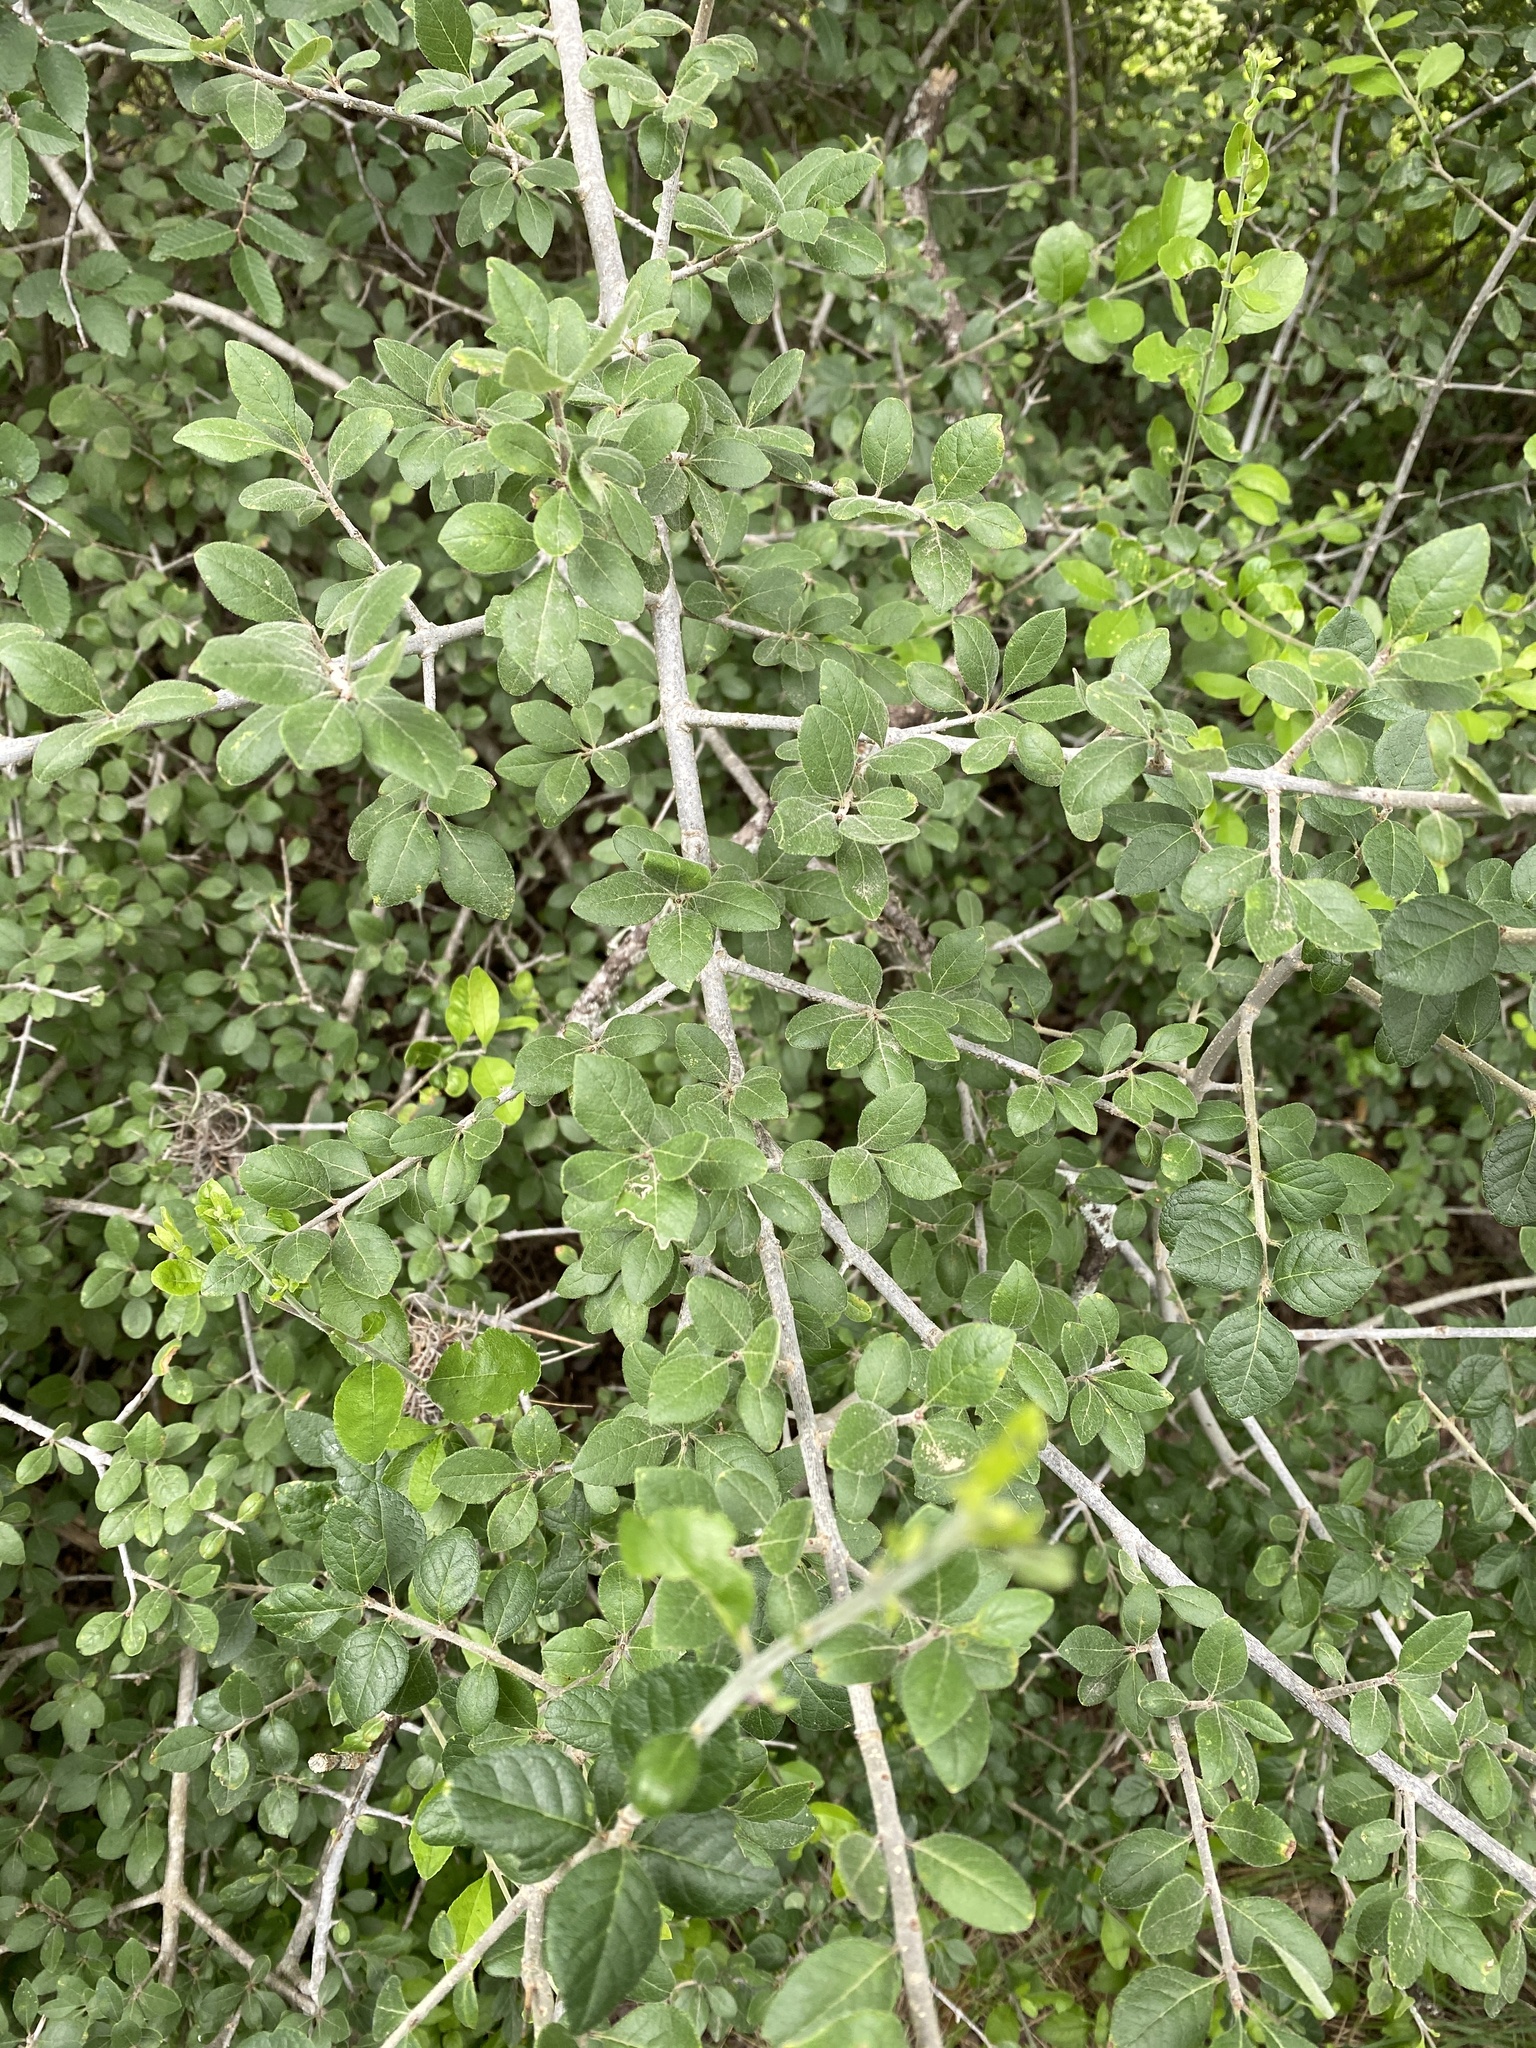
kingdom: Plantae
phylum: Tracheophyta
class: Magnoliopsida
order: Lamiales
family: Oleaceae
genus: Forestiera
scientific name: Forestiera pubescens
